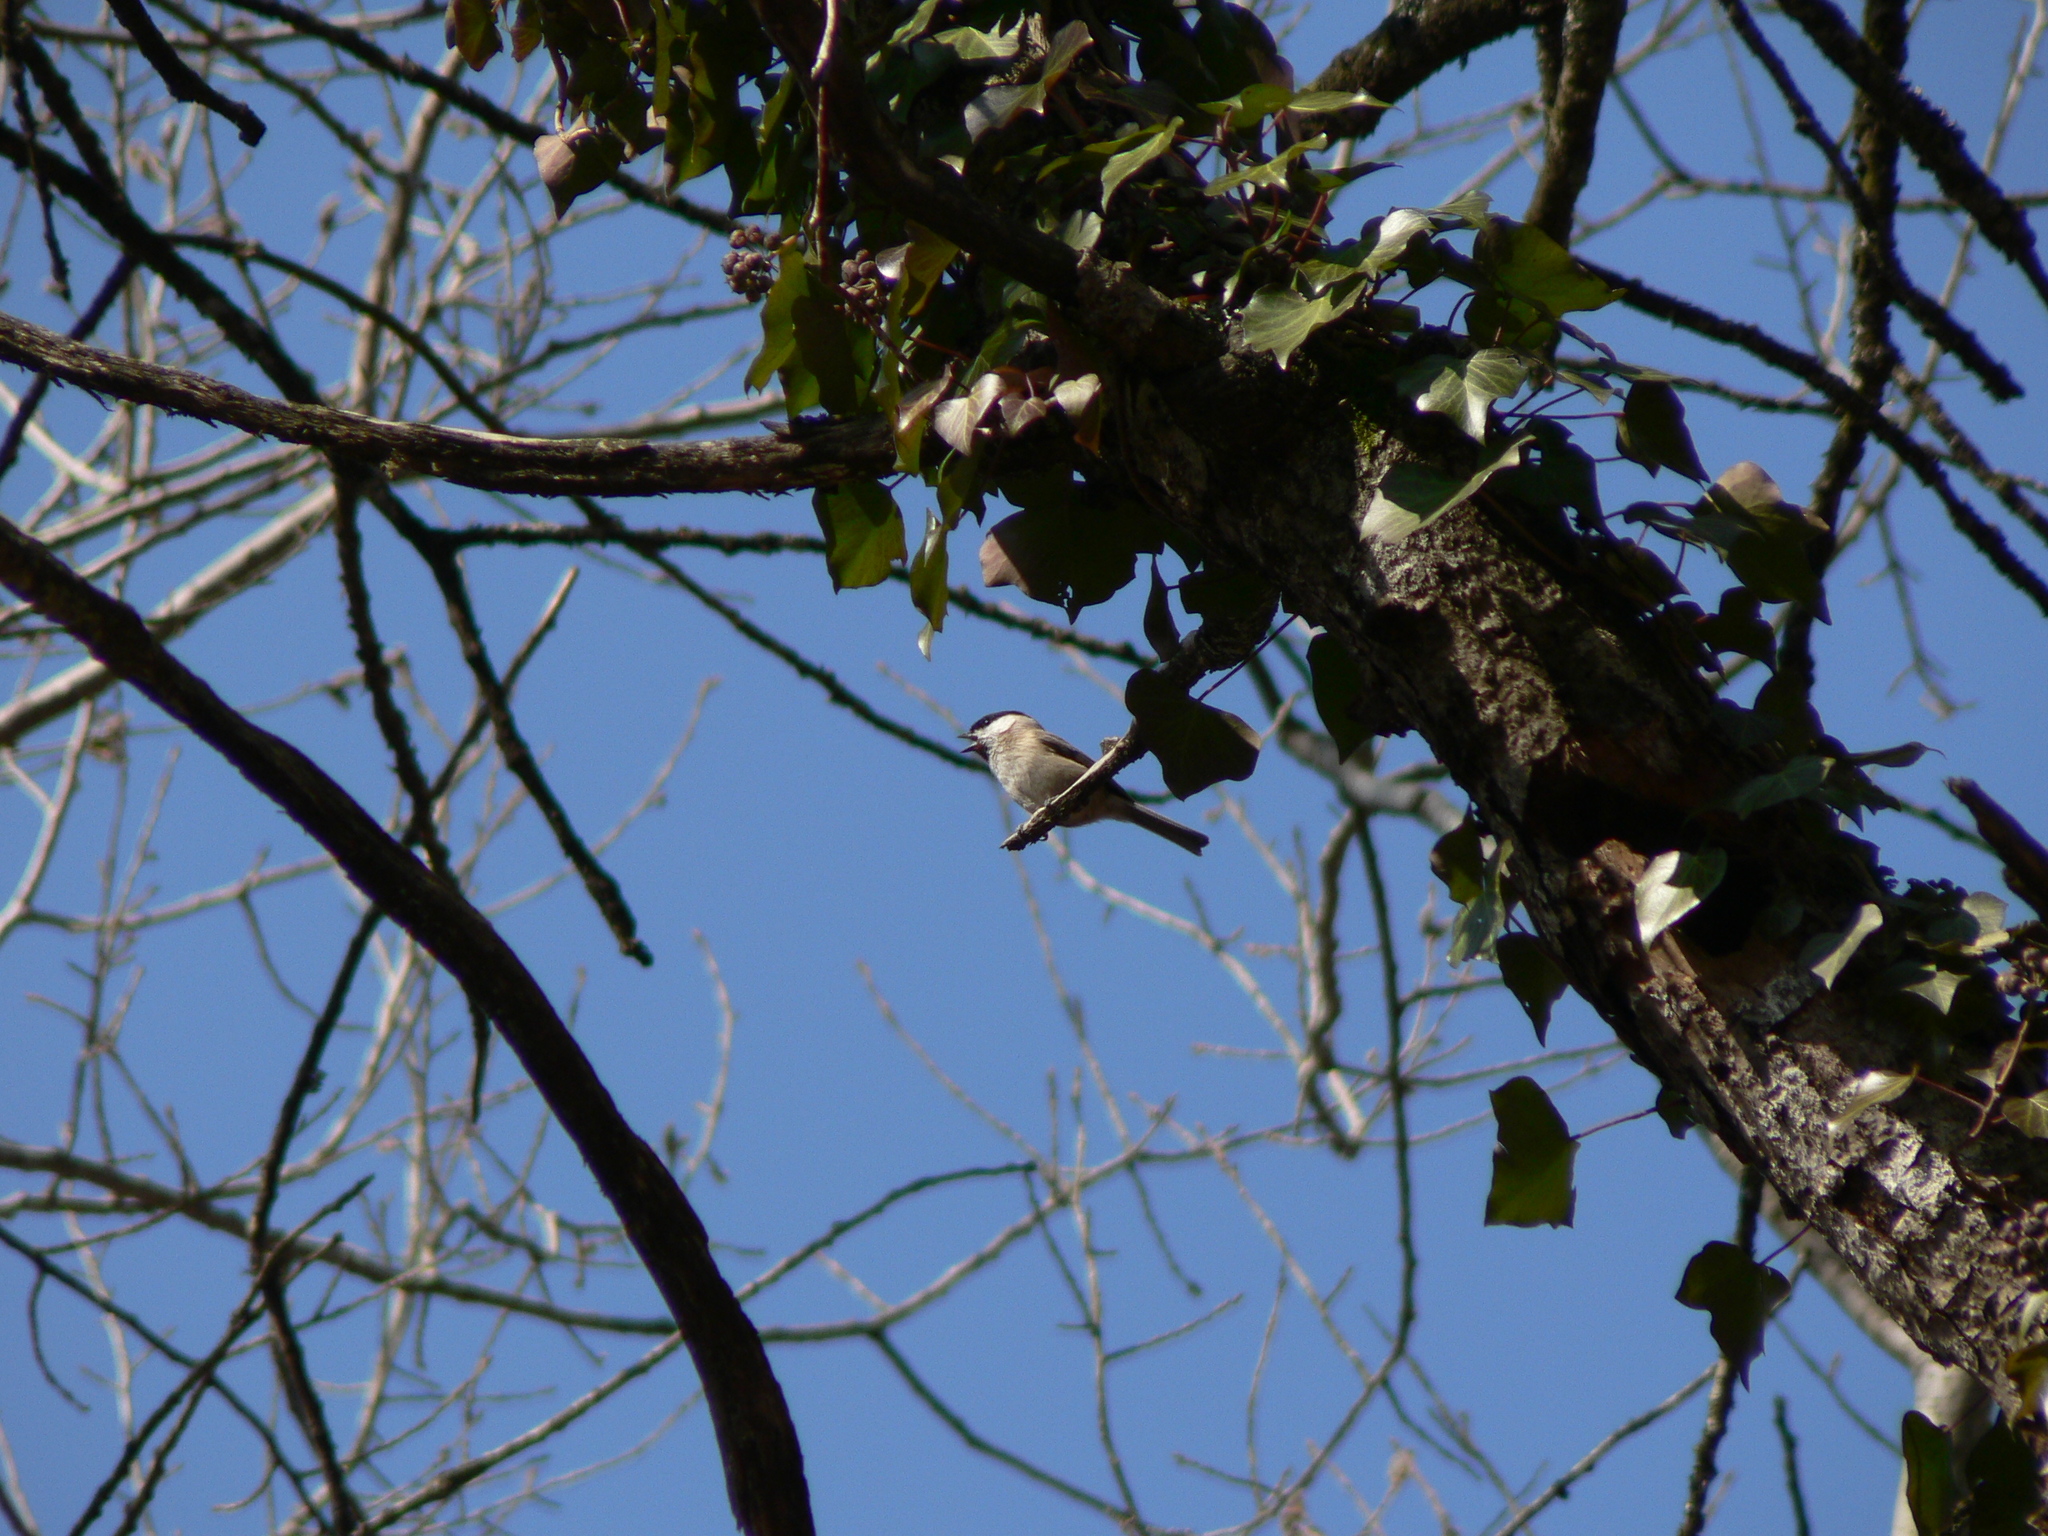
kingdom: Animalia
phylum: Chordata
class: Aves
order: Passeriformes
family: Paridae
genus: Poecile
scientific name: Poecile palustris
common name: Marsh tit
